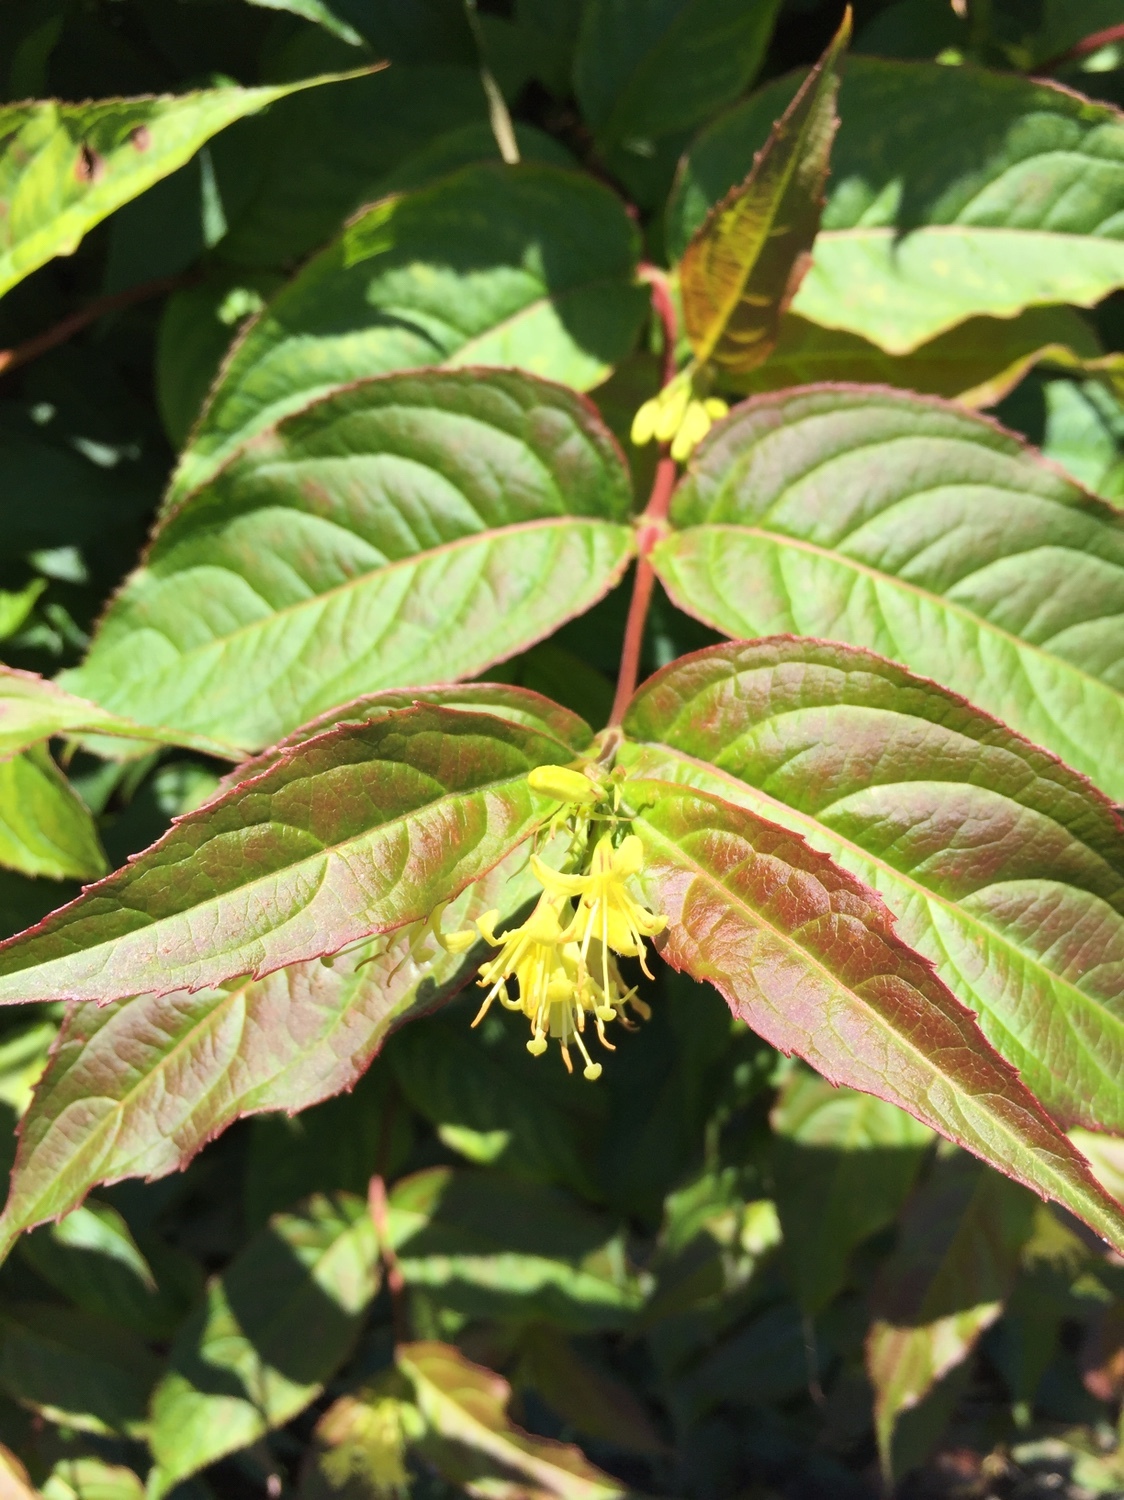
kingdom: Plantae
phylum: Tracheophyta
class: Magnoliopsida
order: Dipsacales
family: Caprifoliaceae
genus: Diervilla
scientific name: Diervilla lonicera
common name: Bush-honeysuckle
